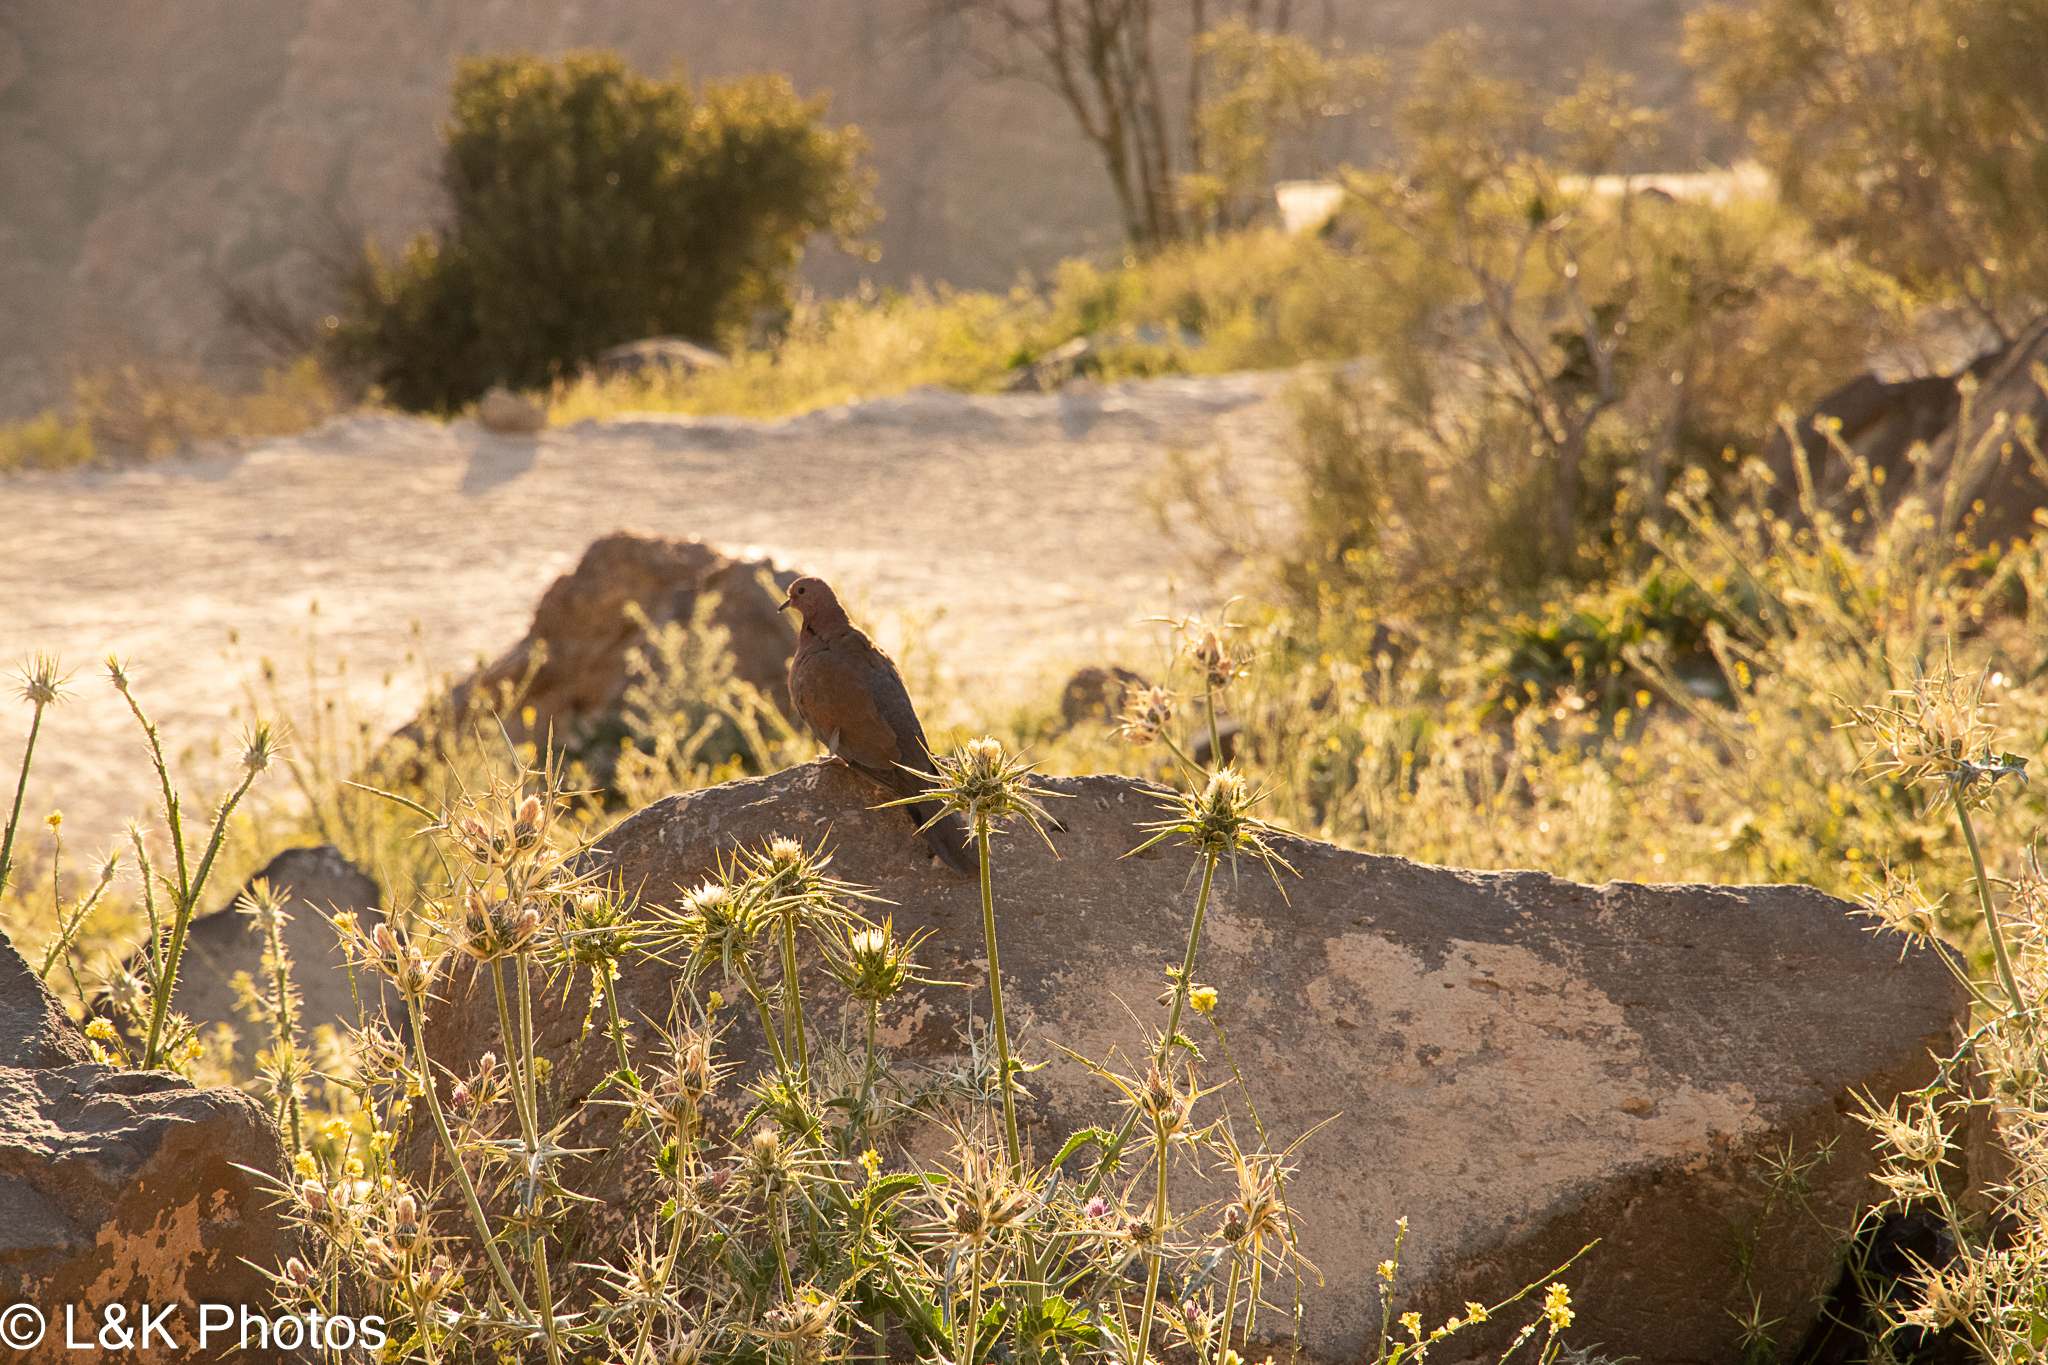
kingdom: Animalia
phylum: Chordata
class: Aves
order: Columbiformes
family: Columbidae
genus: Spilopelia
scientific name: Spilopelia senegalensis
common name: Laughing dove
